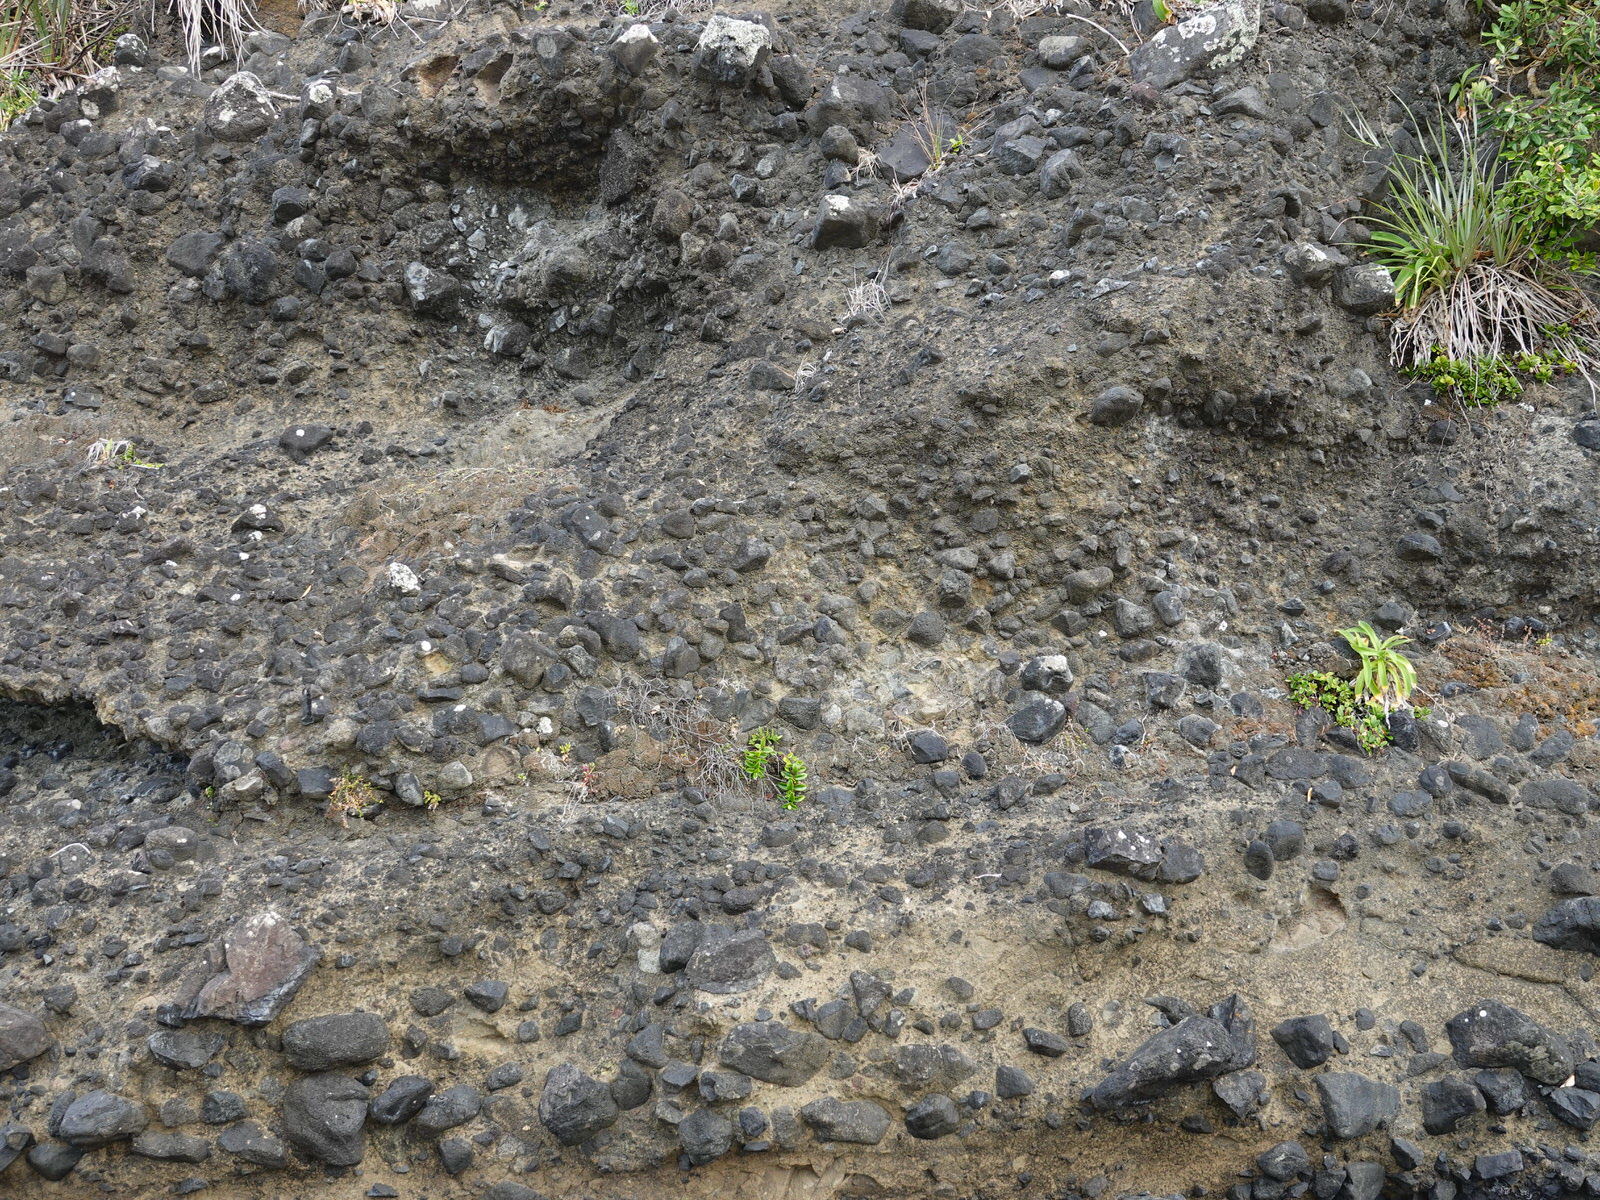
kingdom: Plantae
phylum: Tracheophyta
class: Magnoliopsida
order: Lamiales
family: Plantaginaceae
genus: Veronica
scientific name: Veronica obtusata
